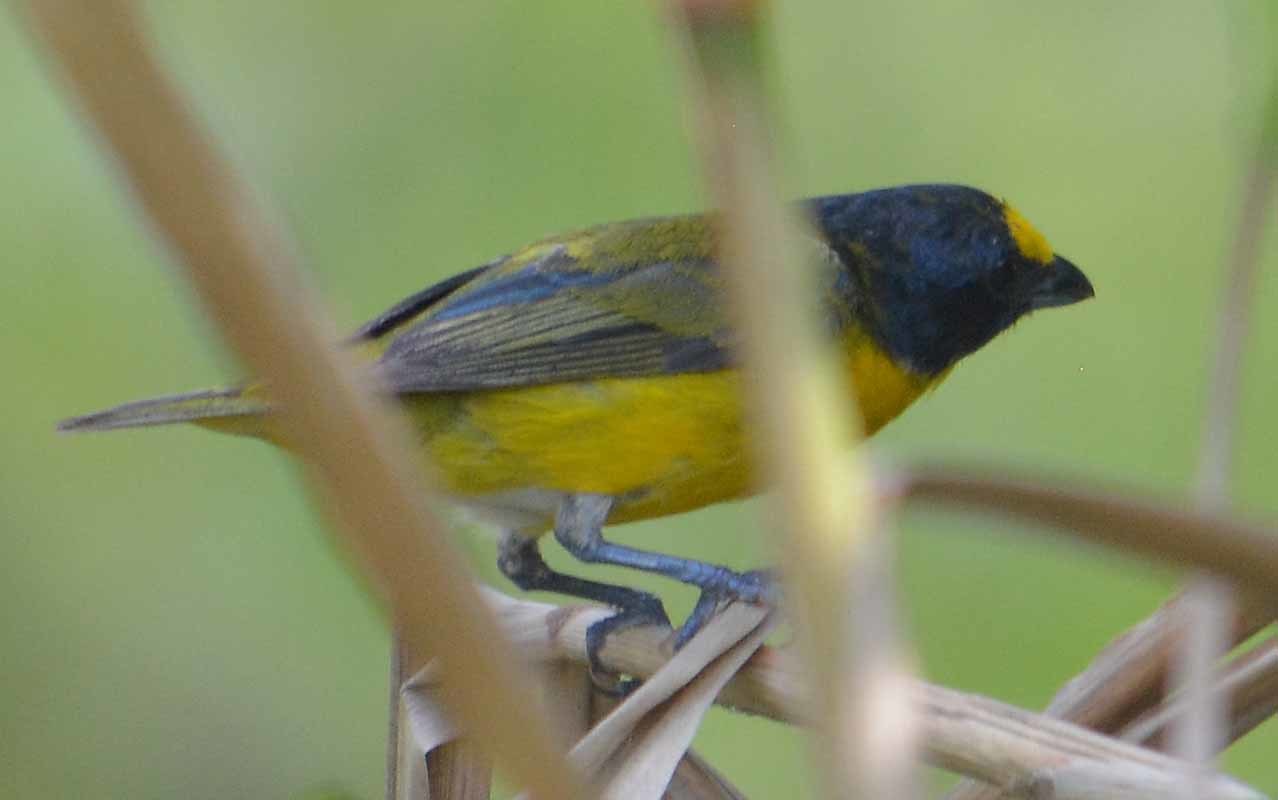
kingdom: Animalia
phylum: Chordata
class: Aves
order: Passeriformes
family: Fringillidae
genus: Euphonia
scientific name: Euphonia affinis
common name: Scrub euphonia
